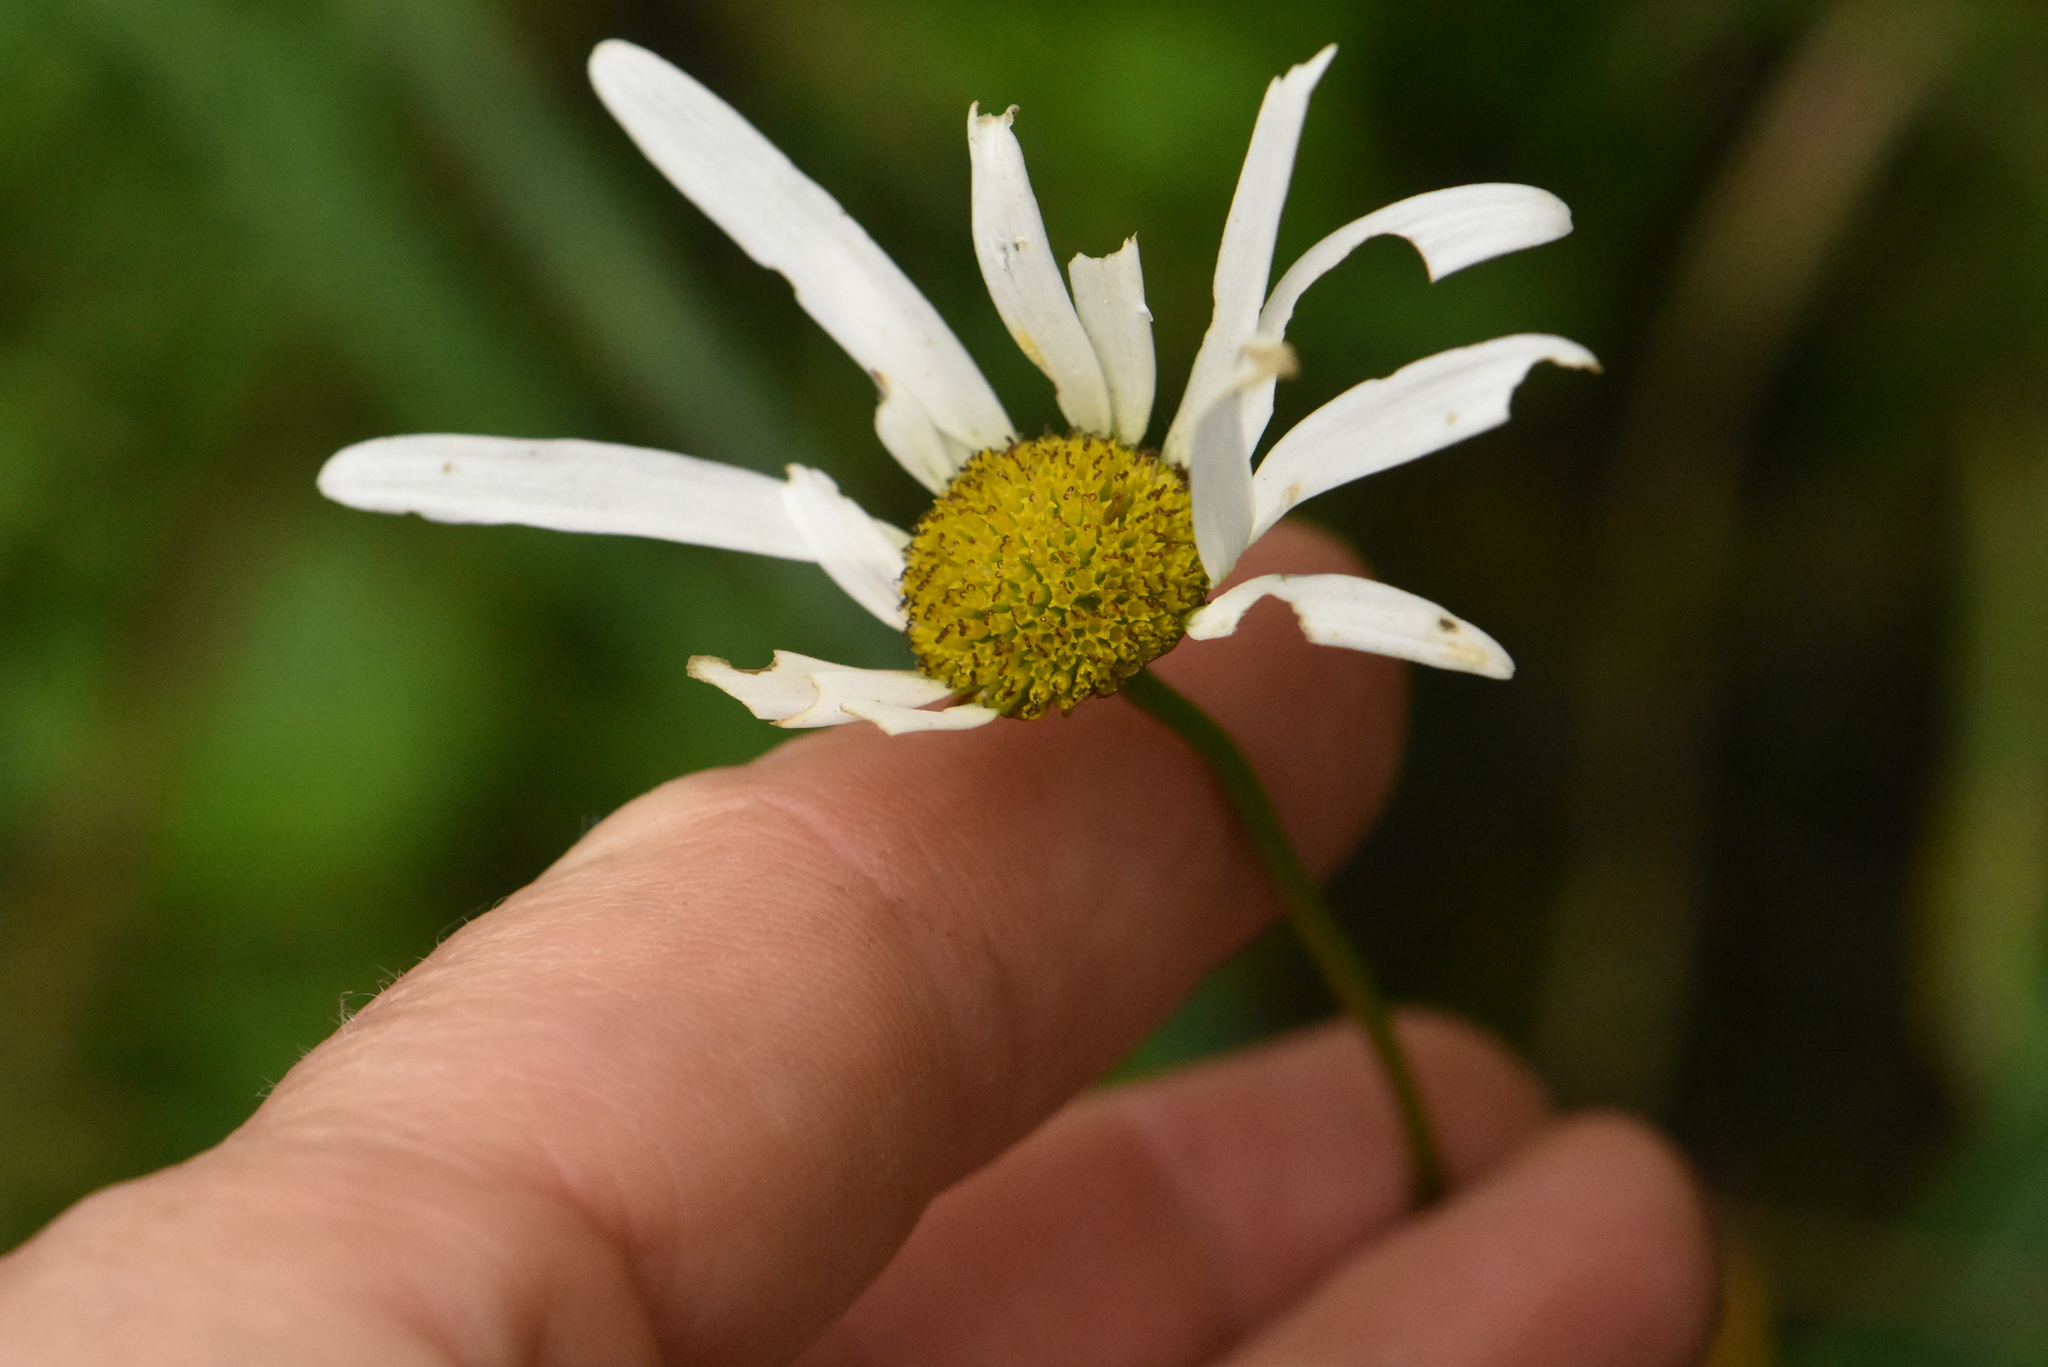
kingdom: Plantae
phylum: Tracheophyta
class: Magnoliopsida
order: Asterales
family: Asteraceae
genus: Leucanthemum
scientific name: Leucanthemum vulgare
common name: Oxeye daisy
